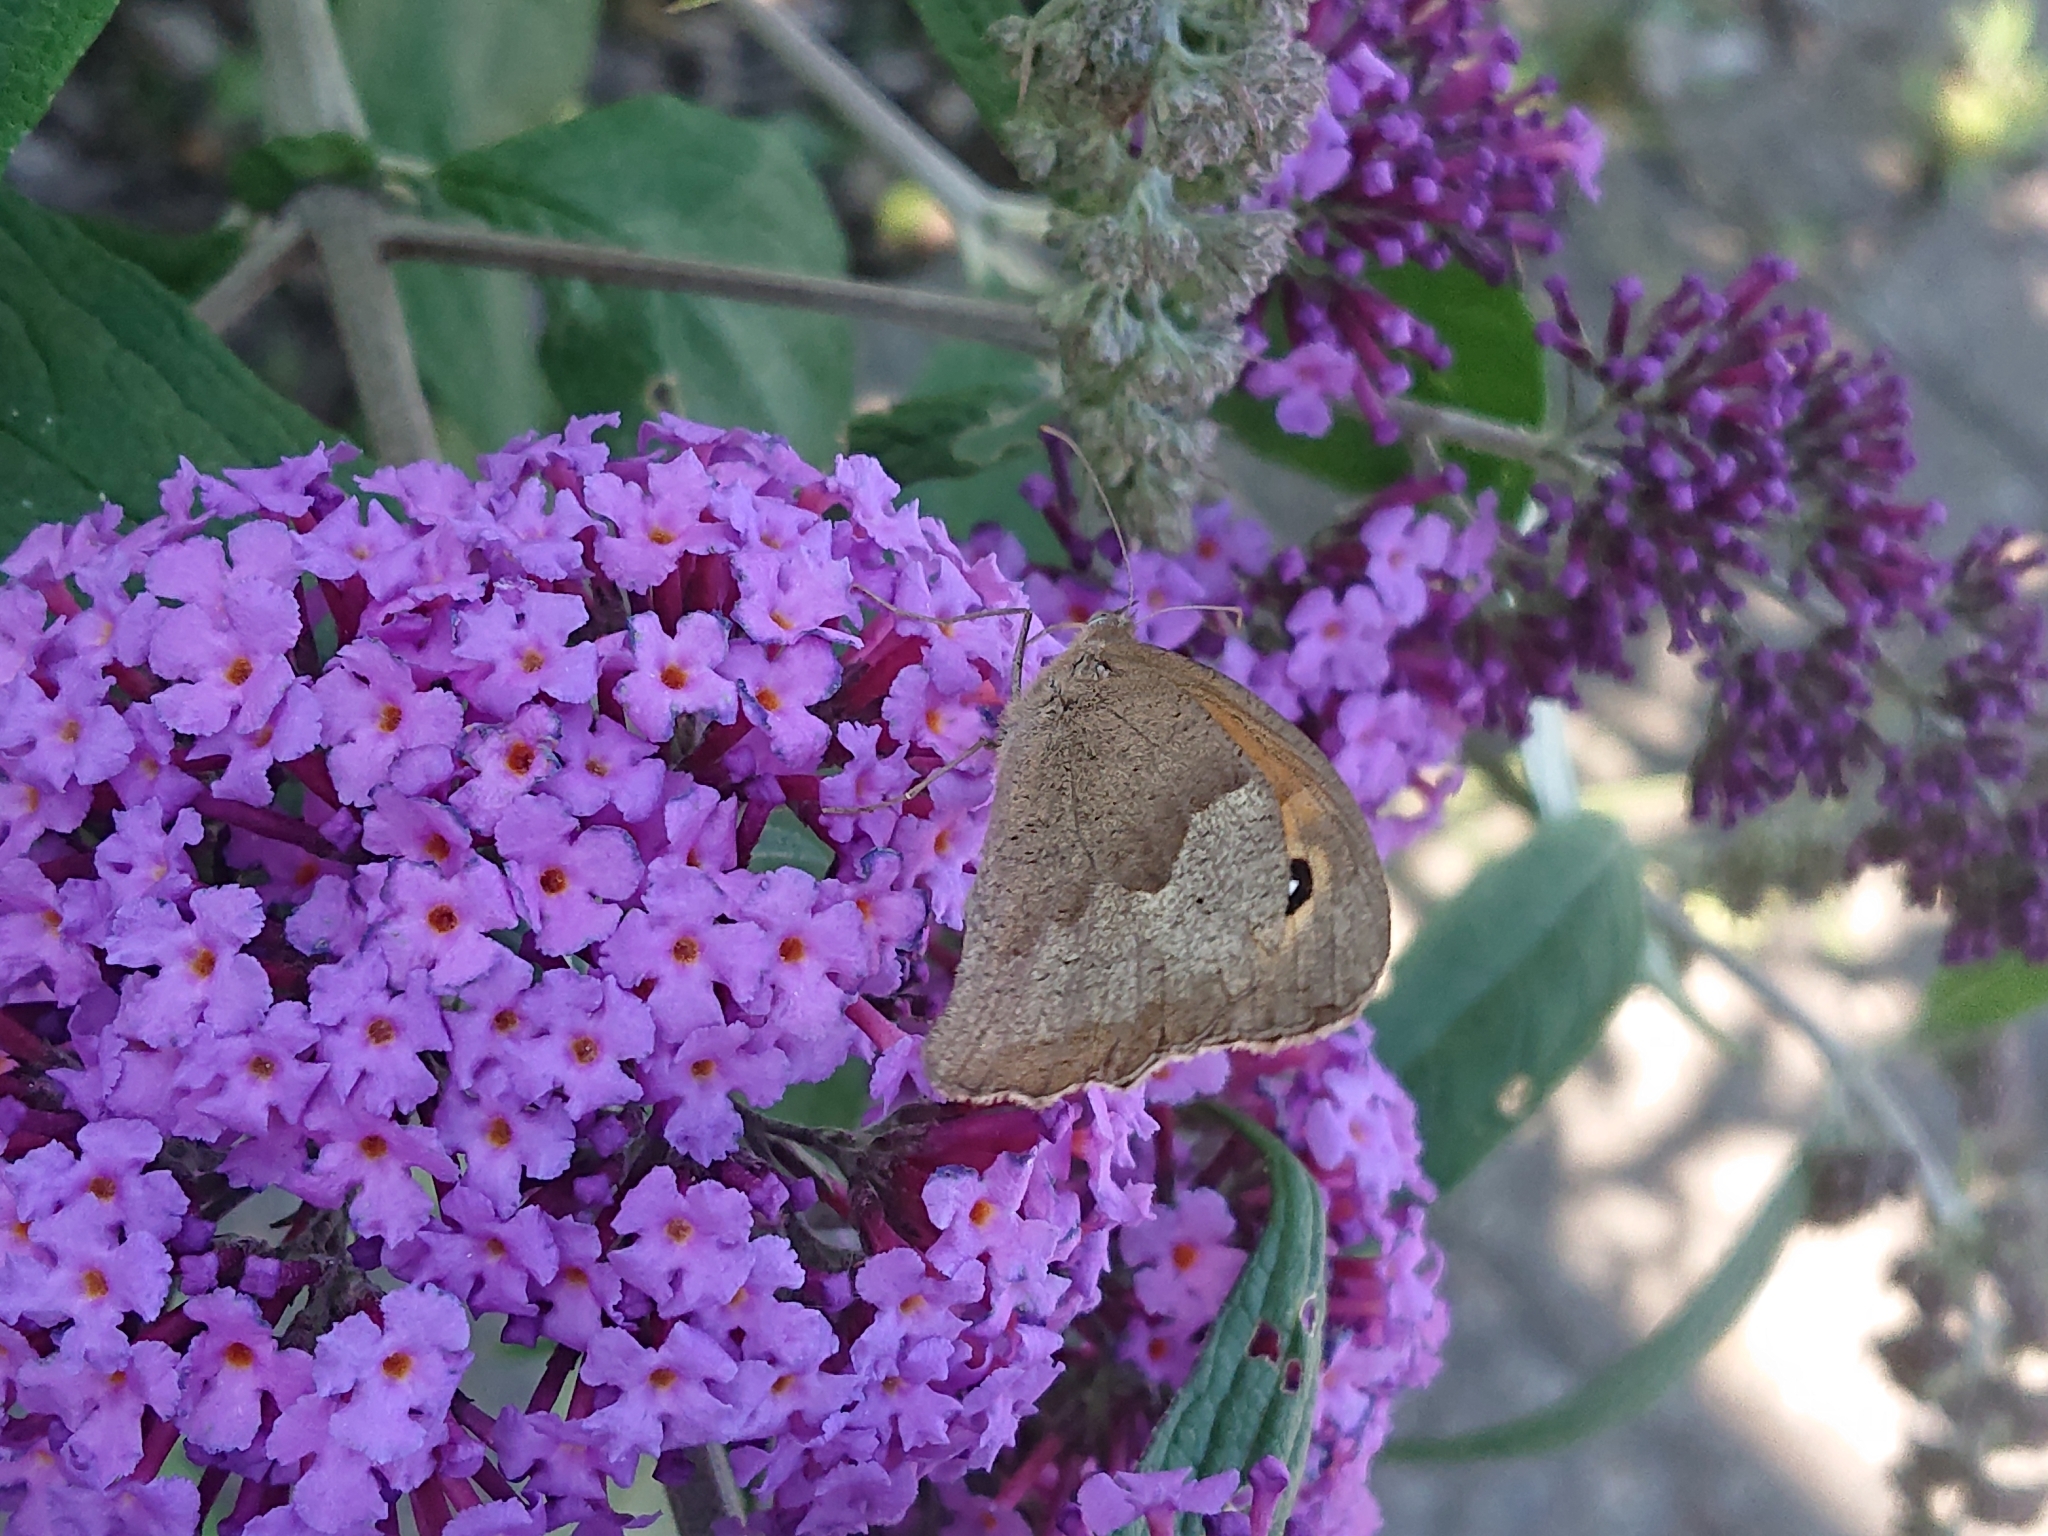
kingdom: Animalia
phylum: Arthropoda
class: Insecta
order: Lepidoptera
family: Nymphalidae
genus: Maniola
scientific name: Maniola jurtina
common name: Meadow brown
